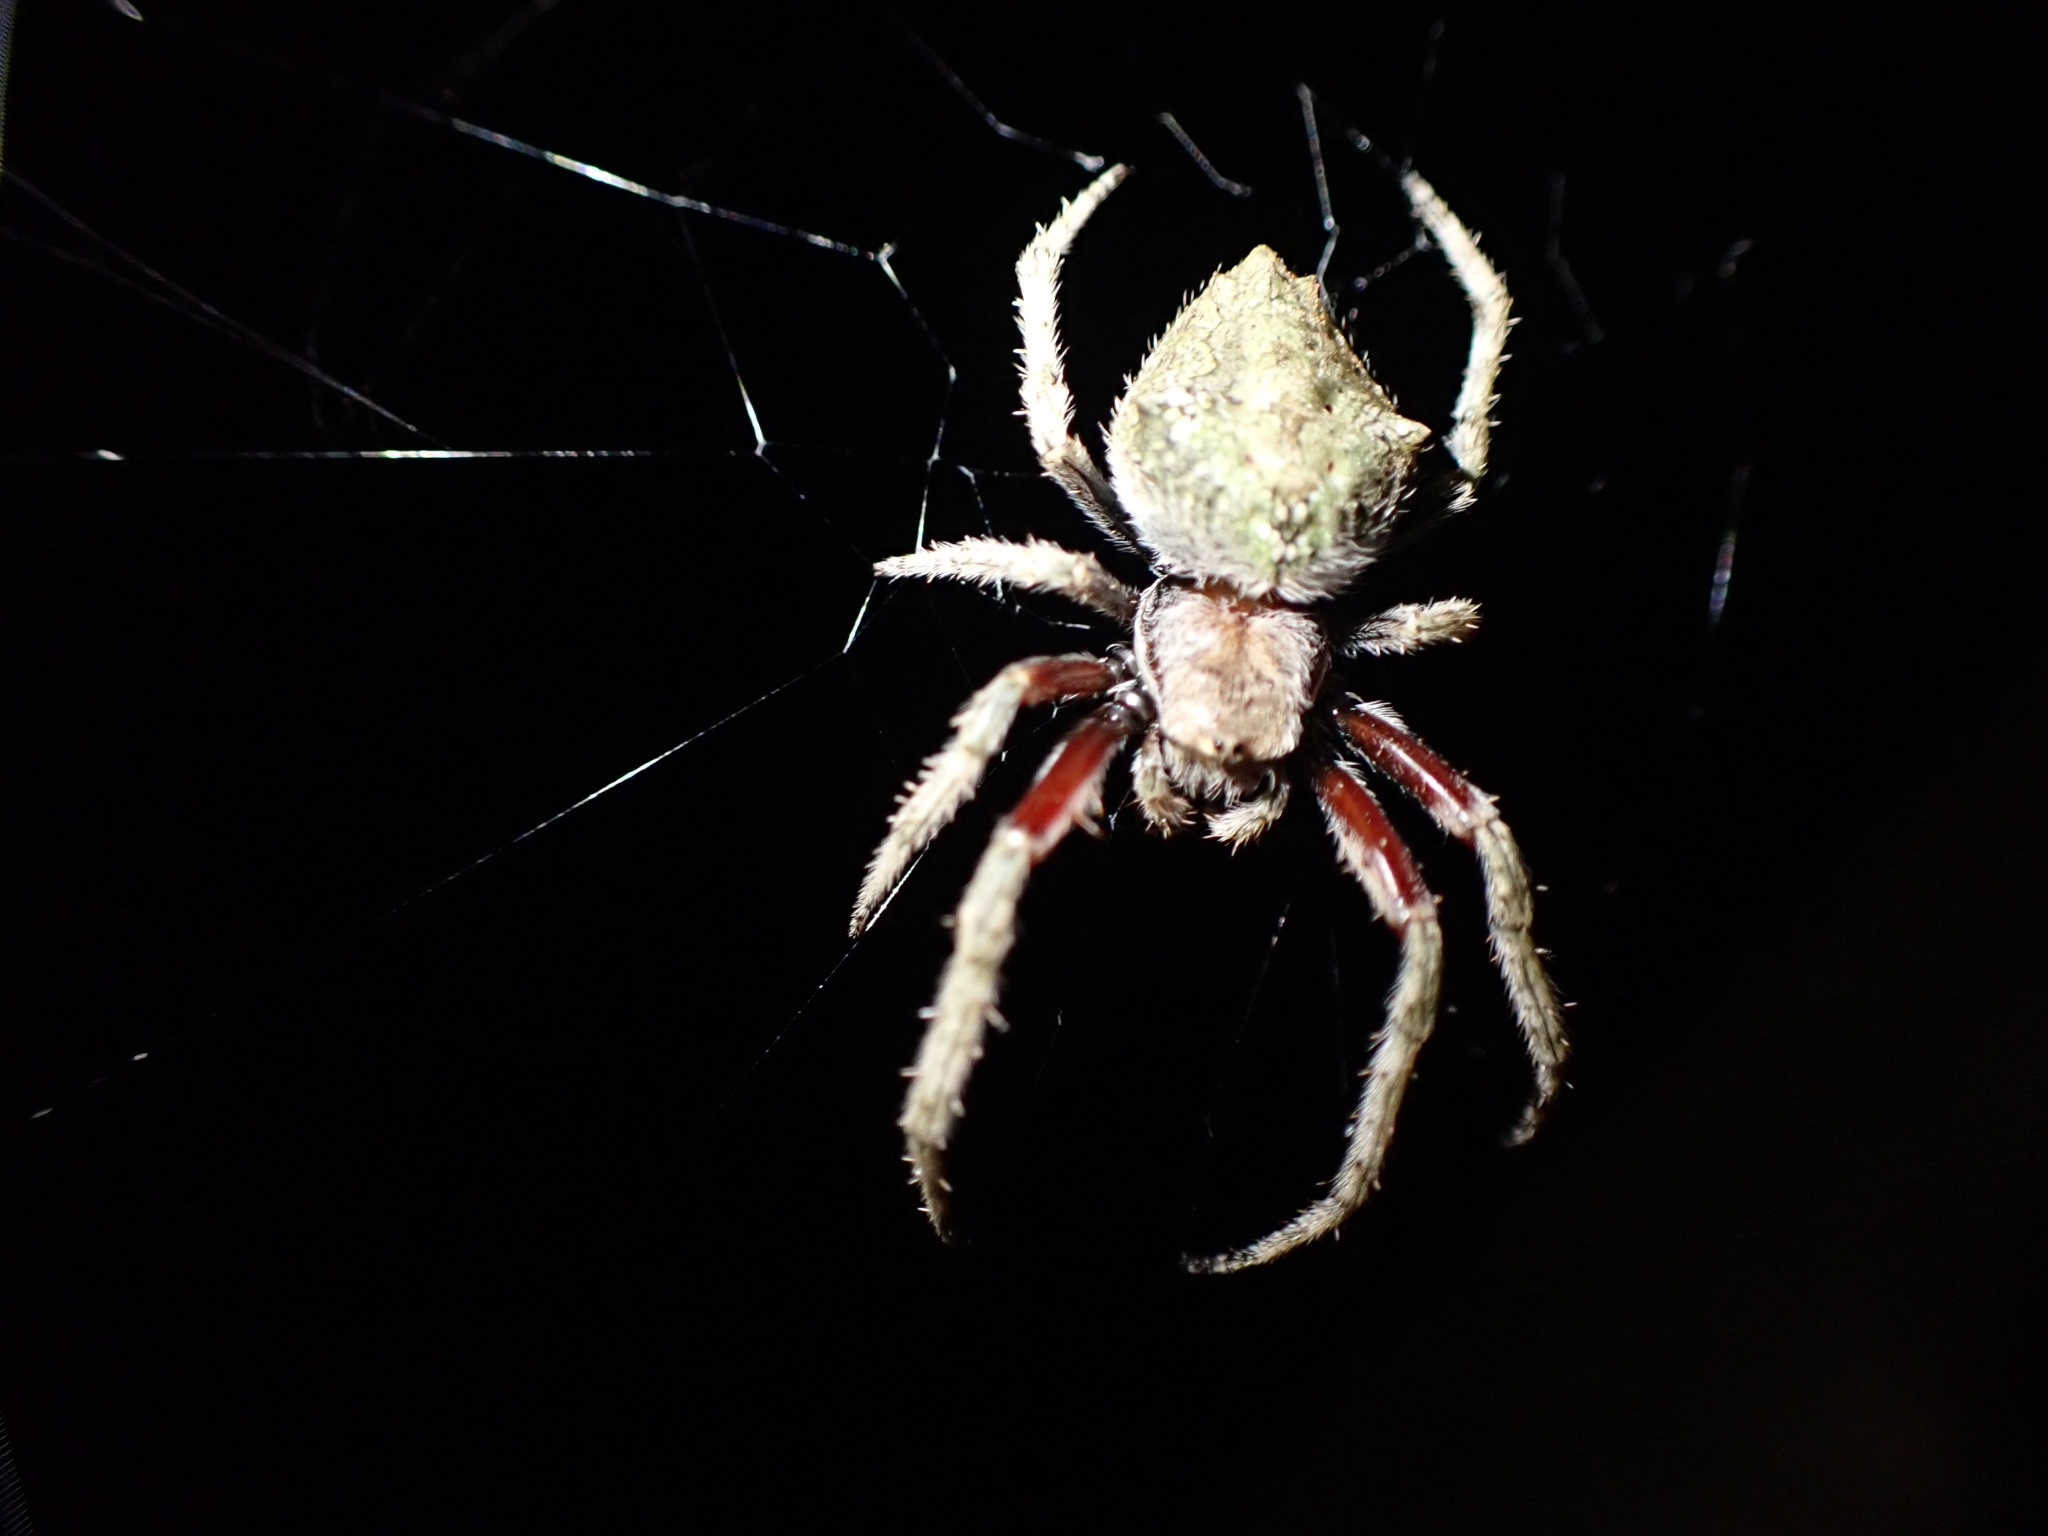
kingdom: Animalia
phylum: Arthropoda
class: Arachnida
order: Araneae
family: Araneidae
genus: Eriophora
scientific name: Eriophora pustulosa
